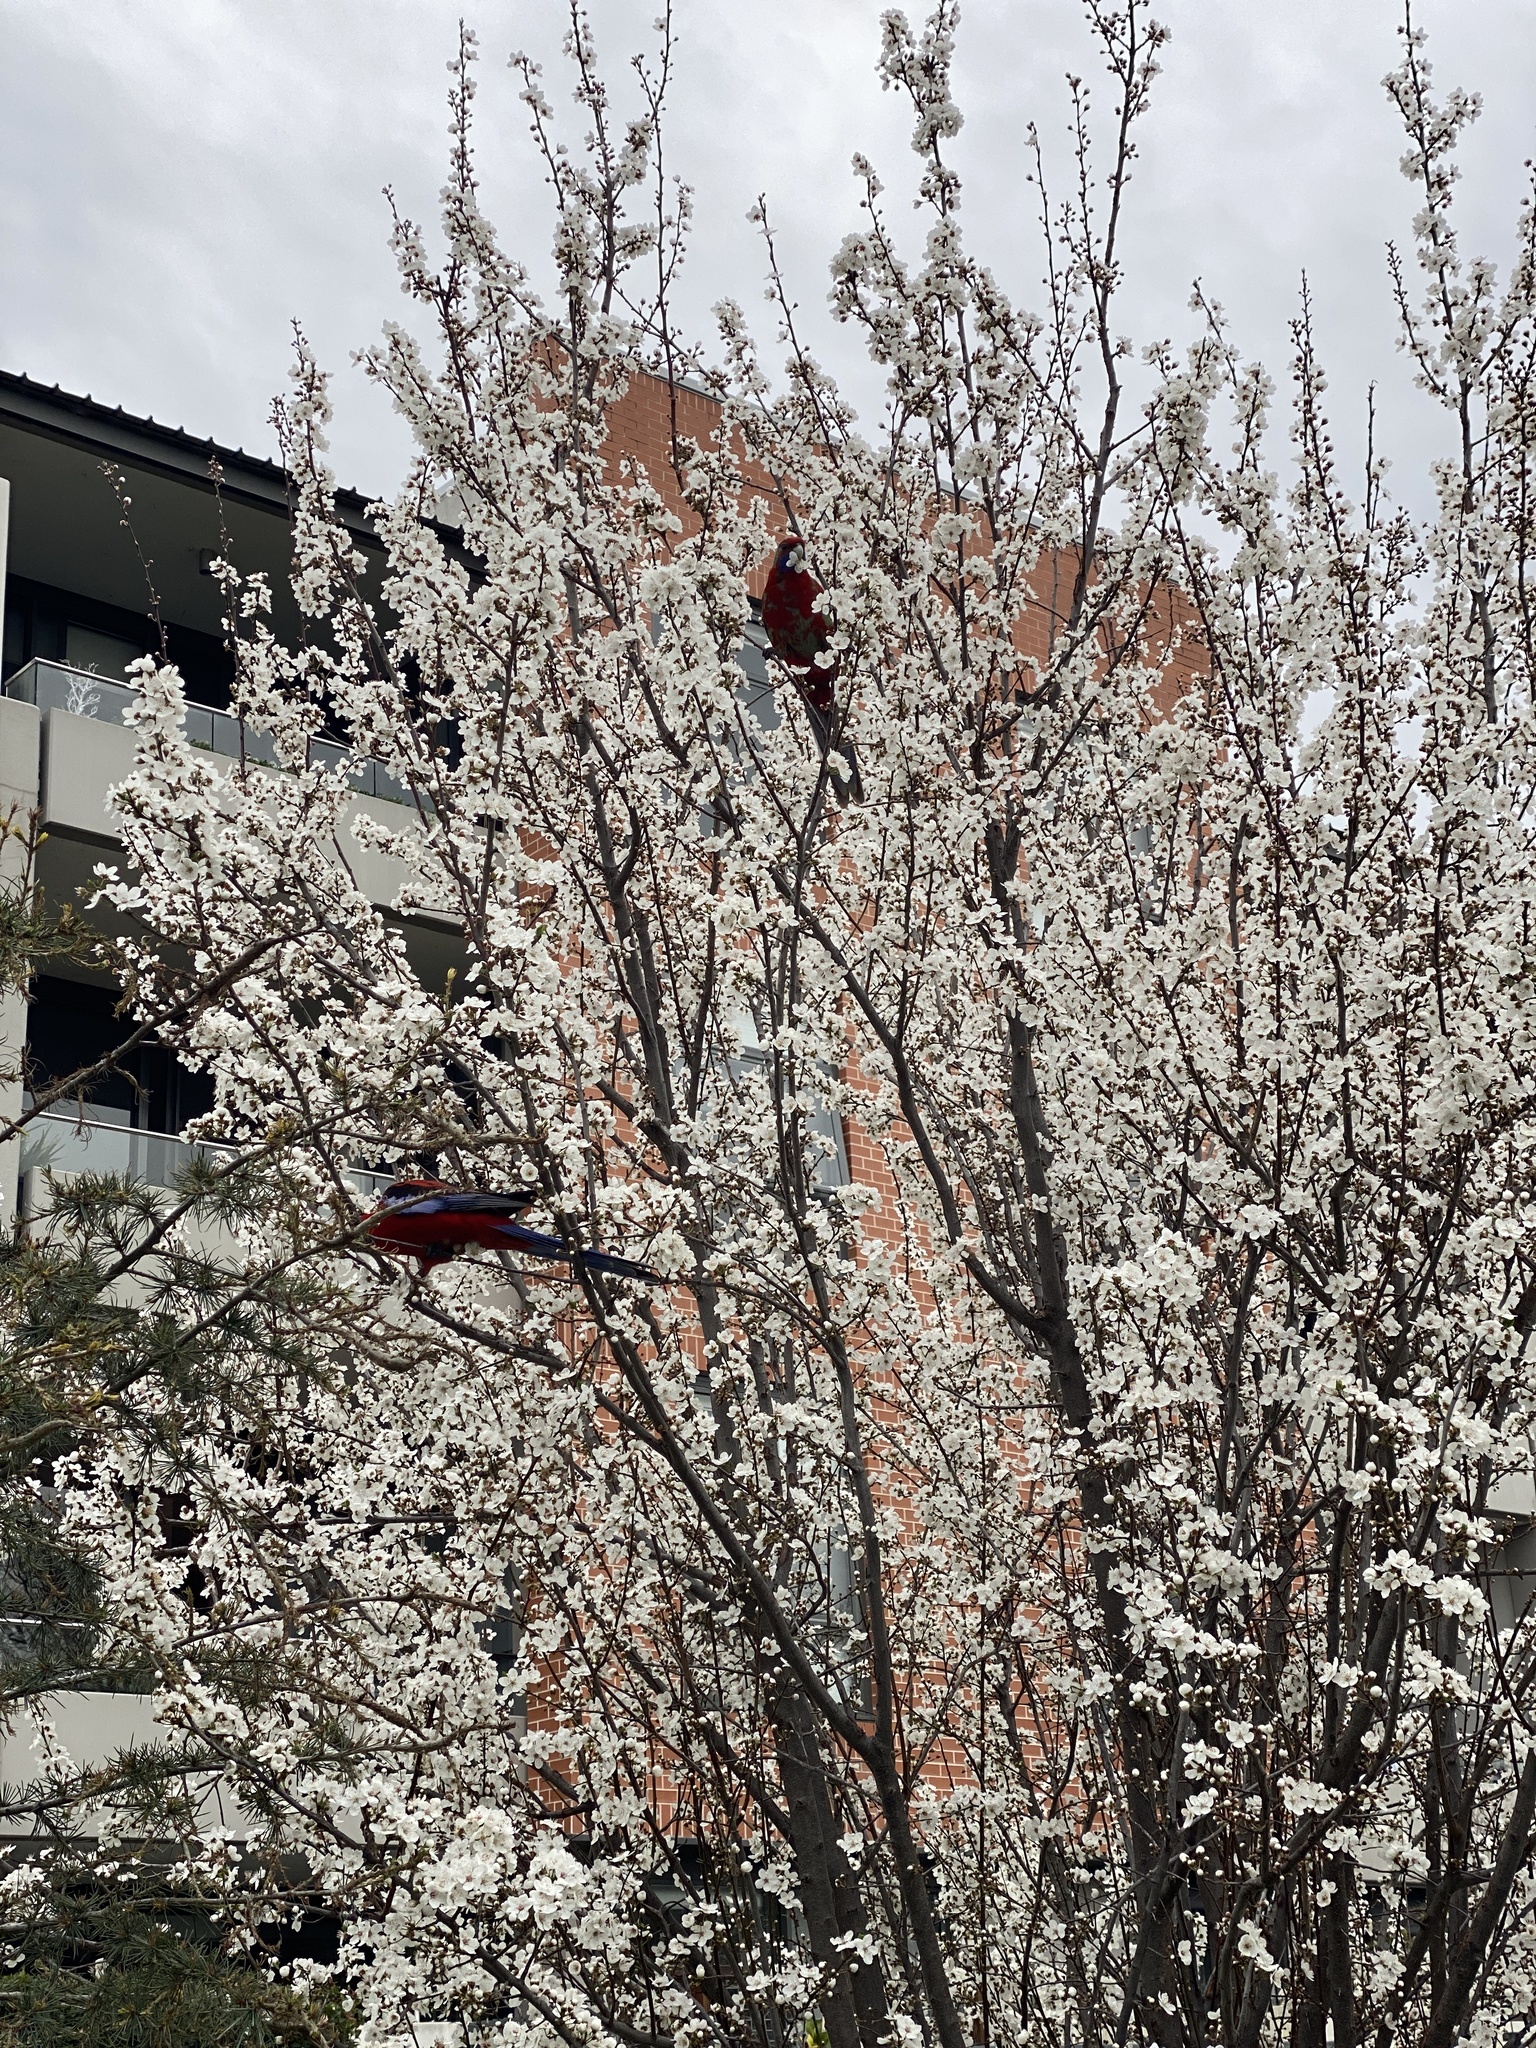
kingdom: Animalia
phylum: Chordata
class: Aves
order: Psittaciformes
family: Psittacidae
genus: Platycercus
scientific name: Platycercus elegans
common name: Crimson rosella
